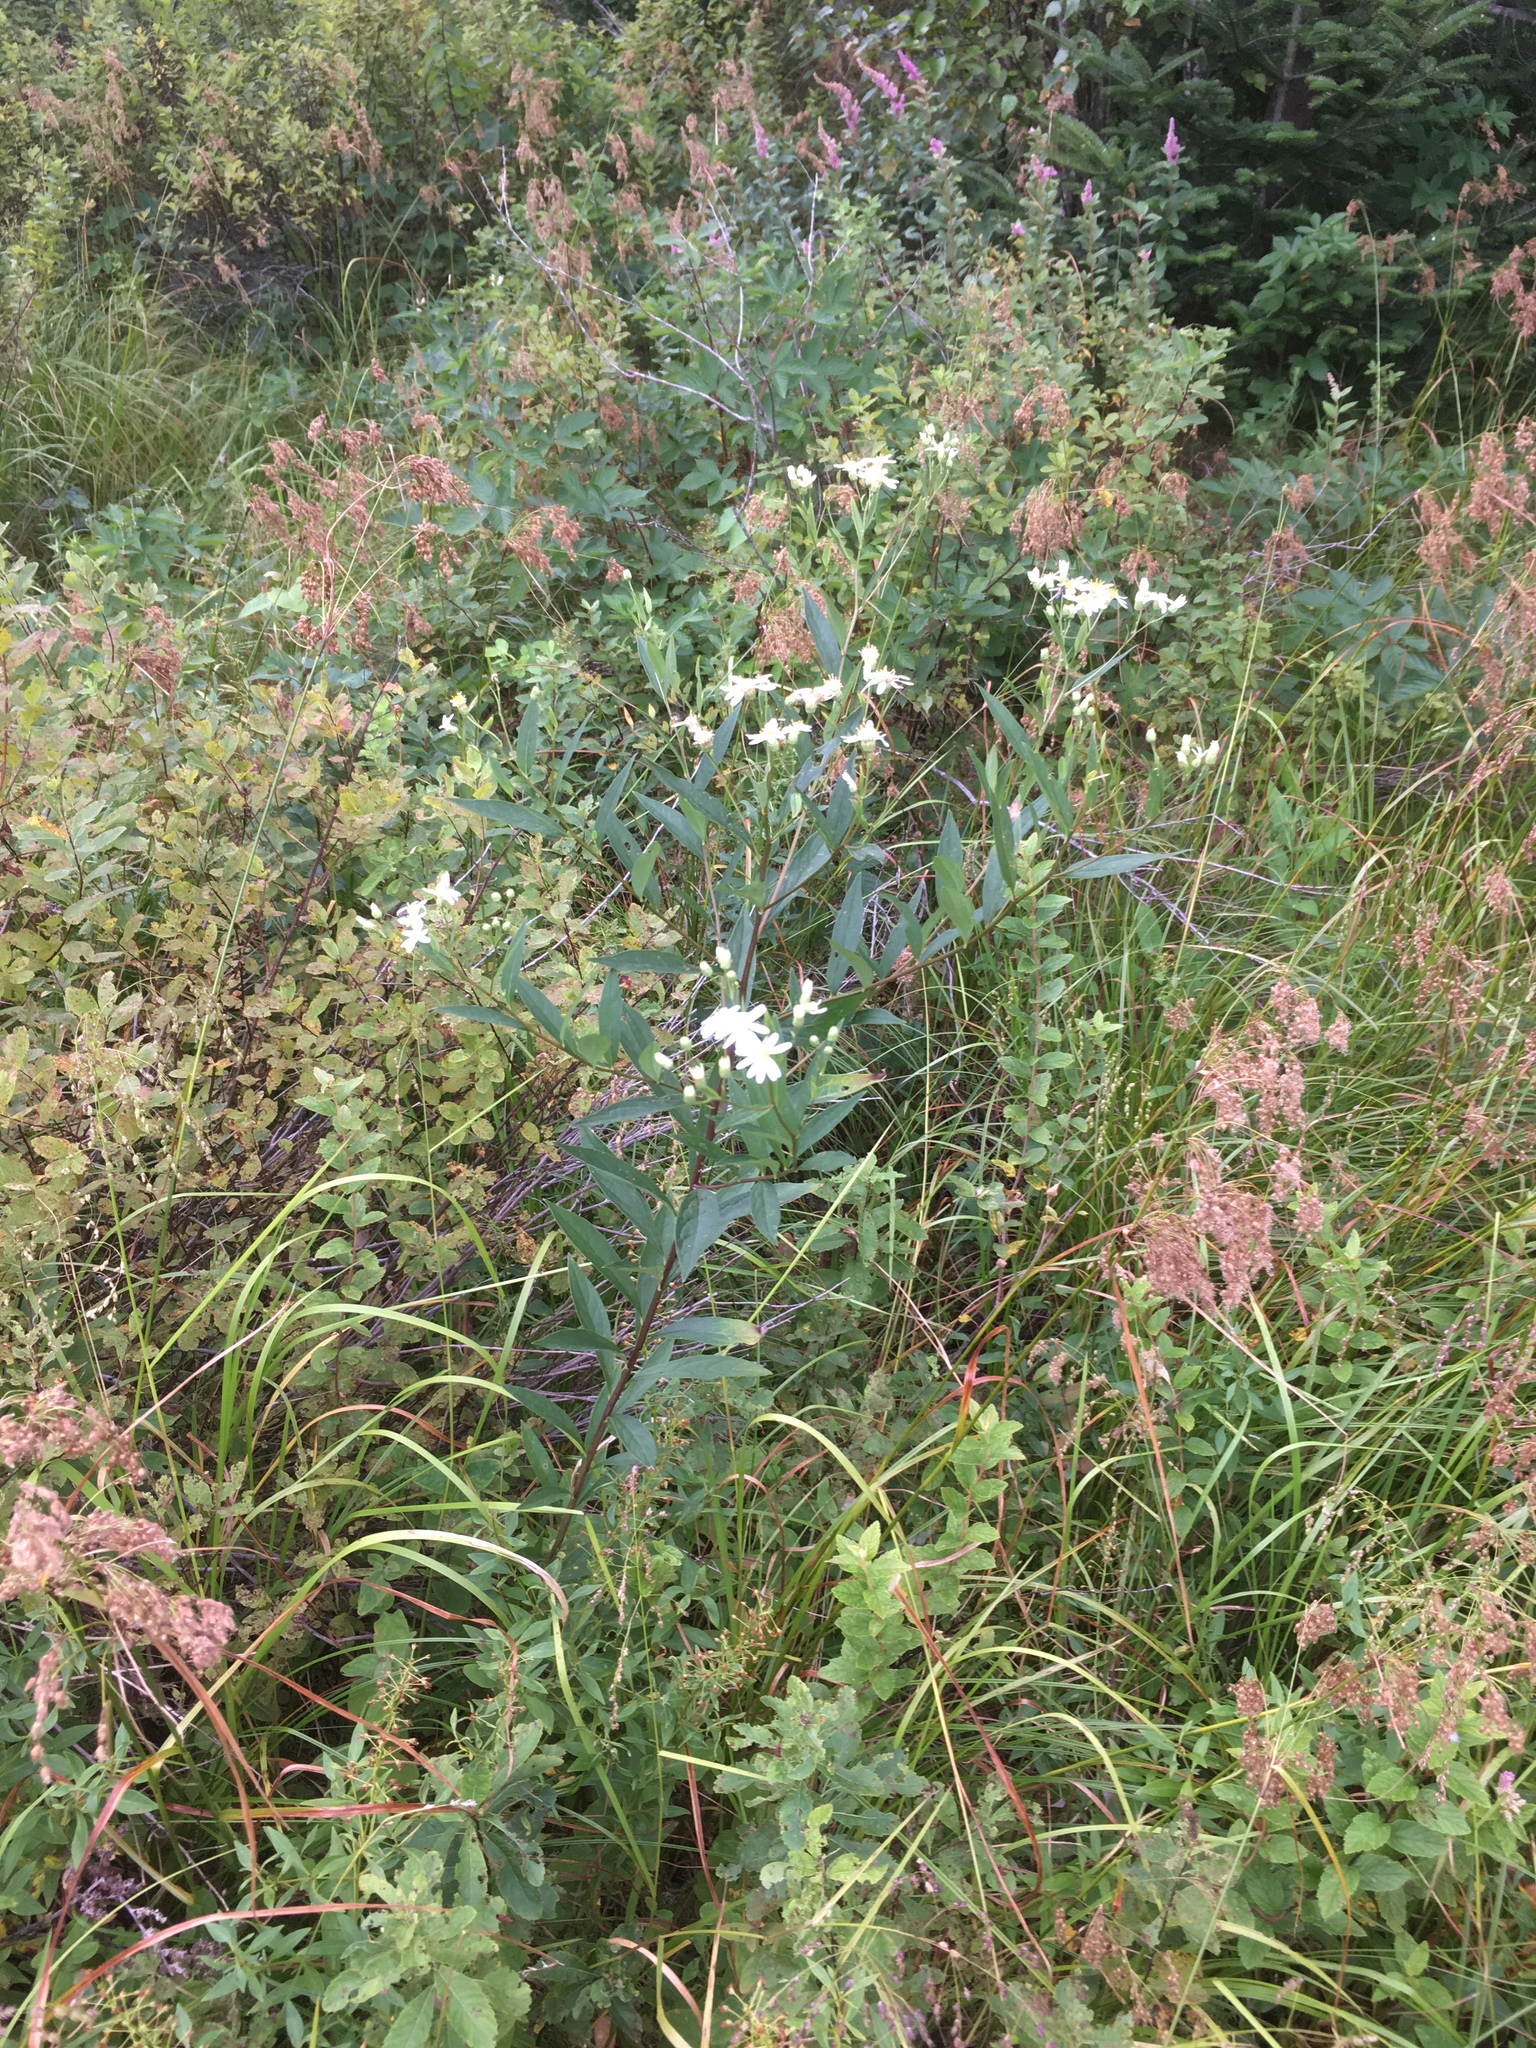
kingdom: Plantae
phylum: Tracheophyta
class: Magnoliopsida
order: Asterales
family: Asteraceae
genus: Doellingeria
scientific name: Doellingeria umbellata
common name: Flat-top white aster
